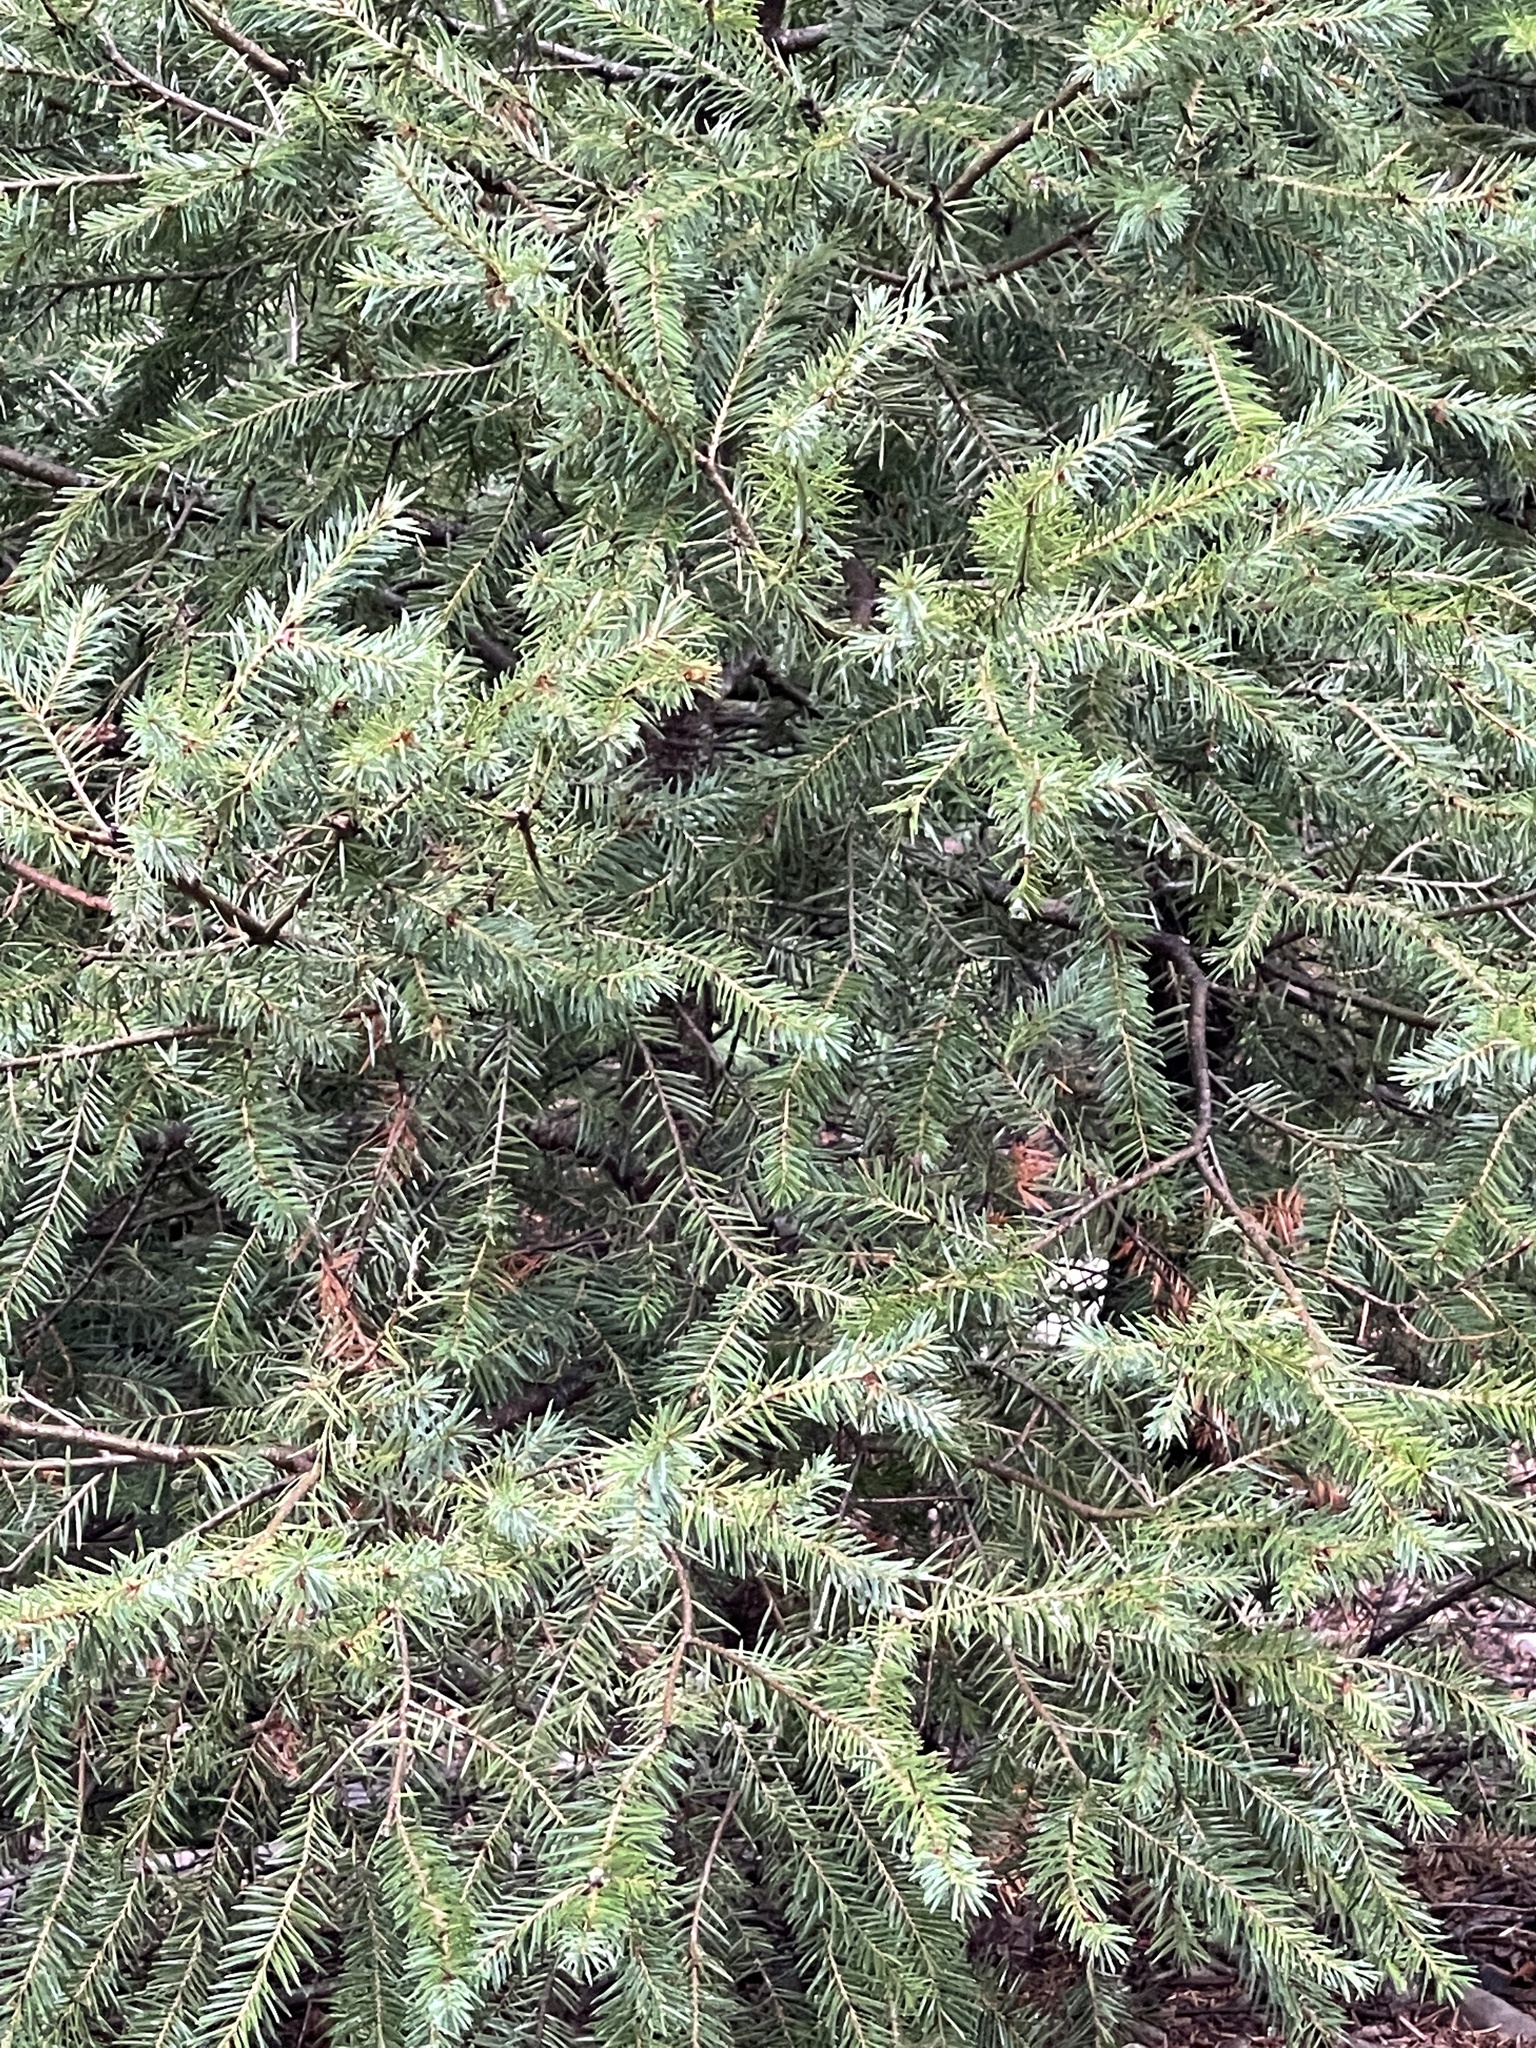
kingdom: Plantae
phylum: Tracheophyta
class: Pinopsida
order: Pinales
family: Pinaceae
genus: Pseudotsuga
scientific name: Pseudotsuga menziesii
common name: Douglas fir
